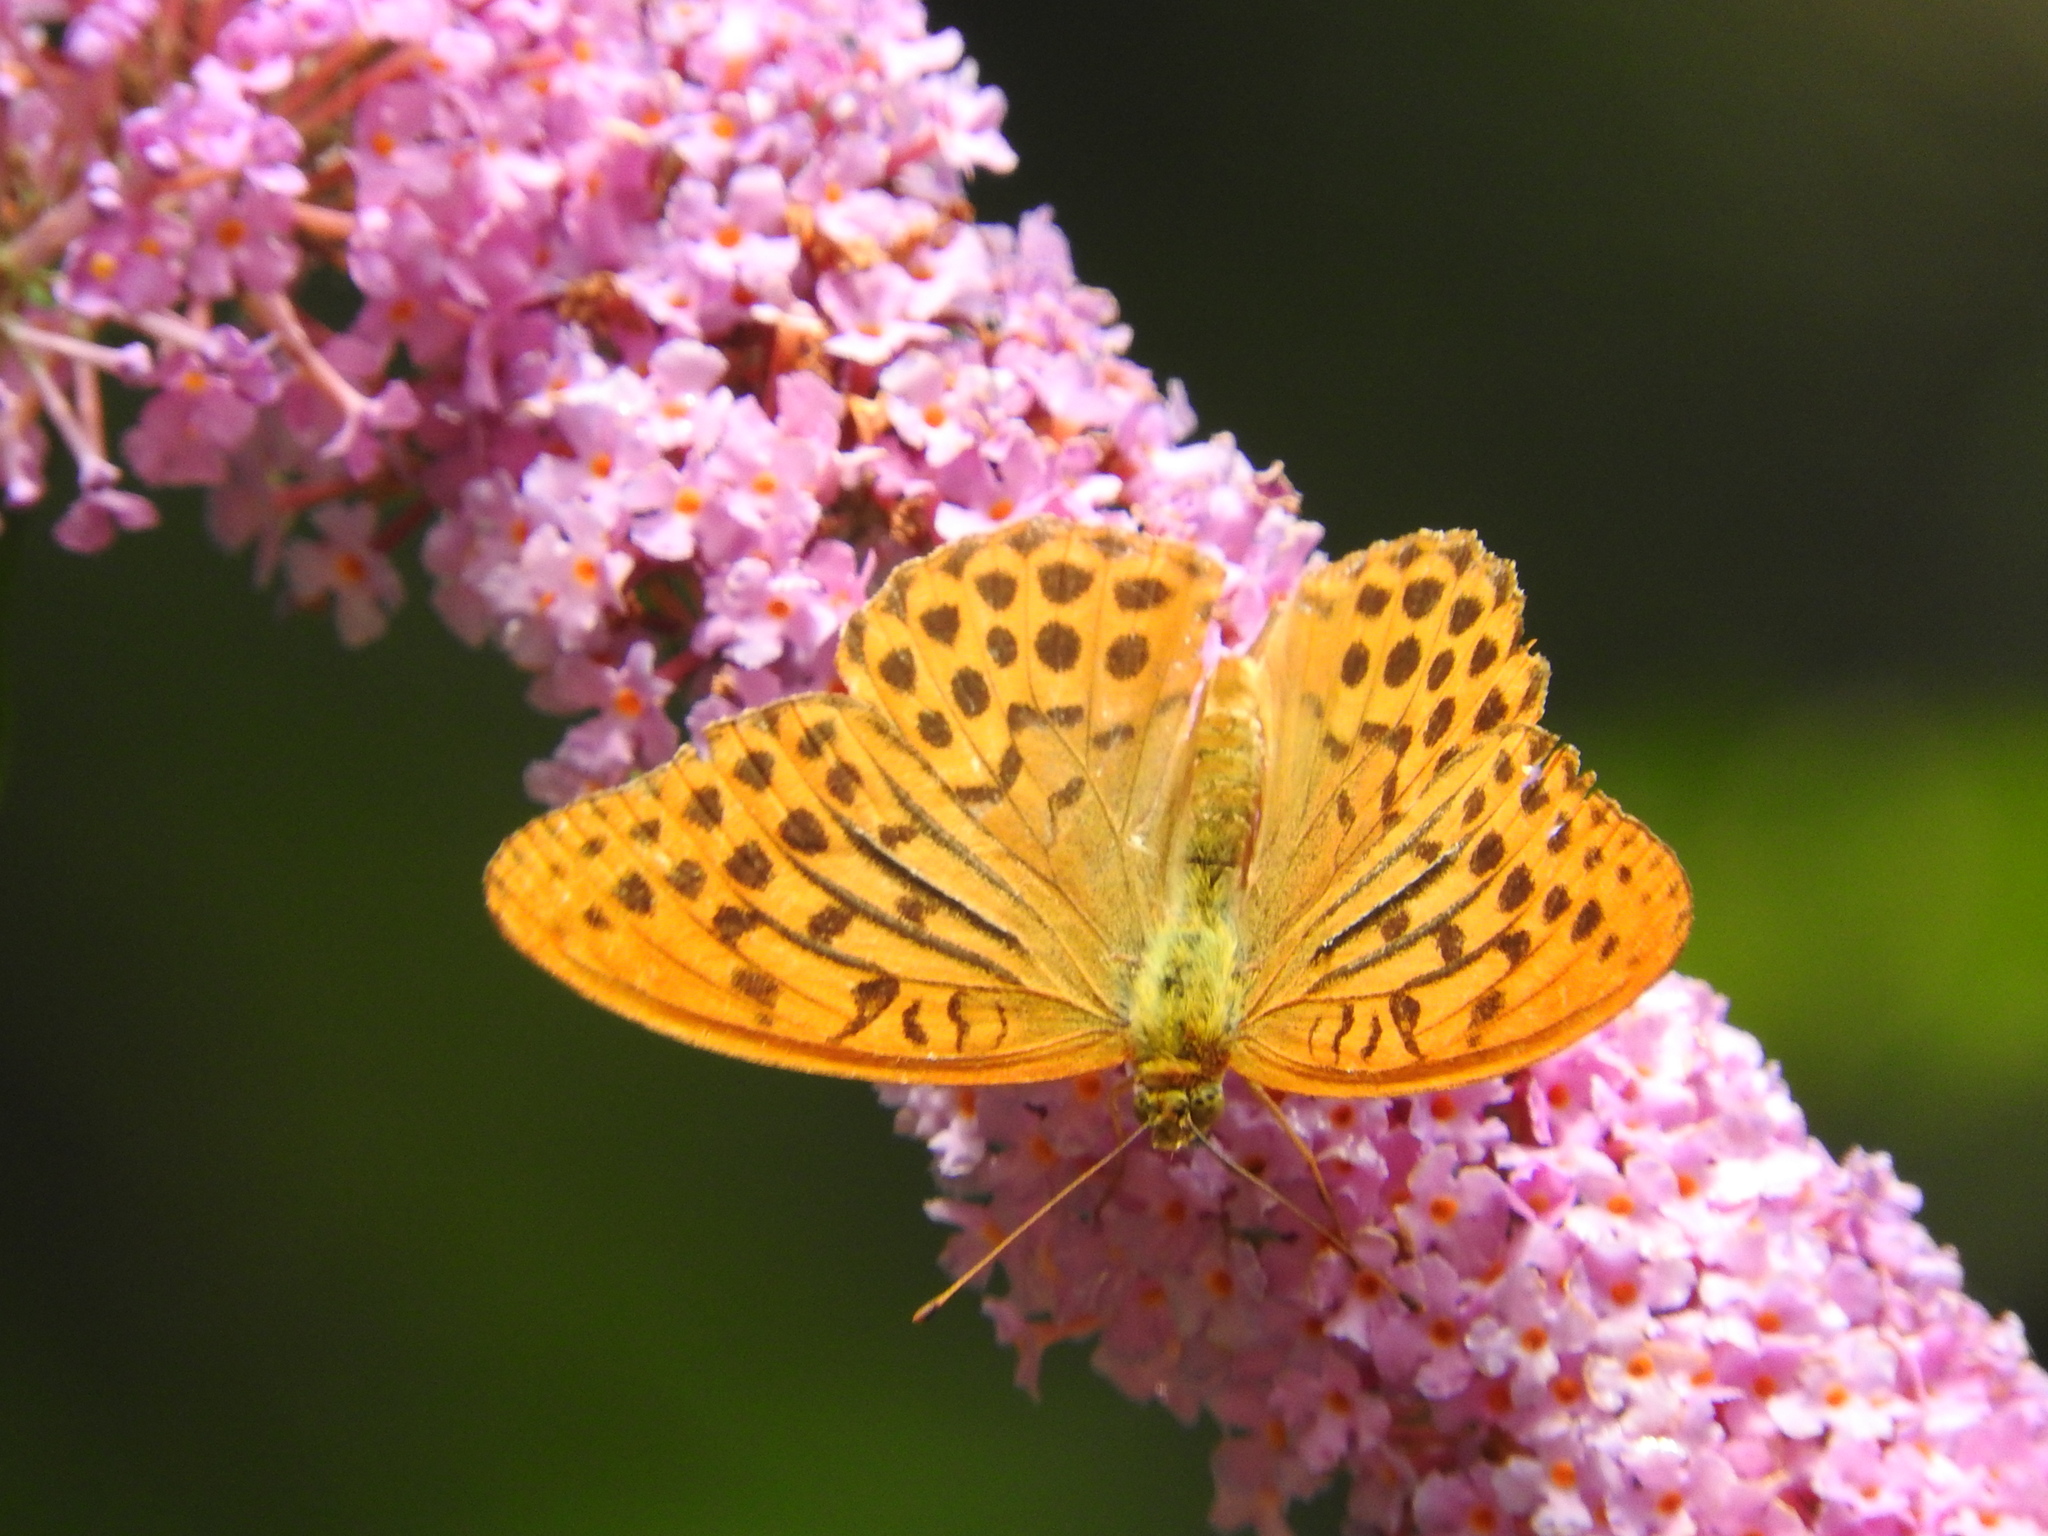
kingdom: Animalia
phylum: Arthropoda
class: Insecta
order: Lepidoptera
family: Nymphalidae
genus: Argynnis
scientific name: Argynnis paphia
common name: Silver-washed fritillary
